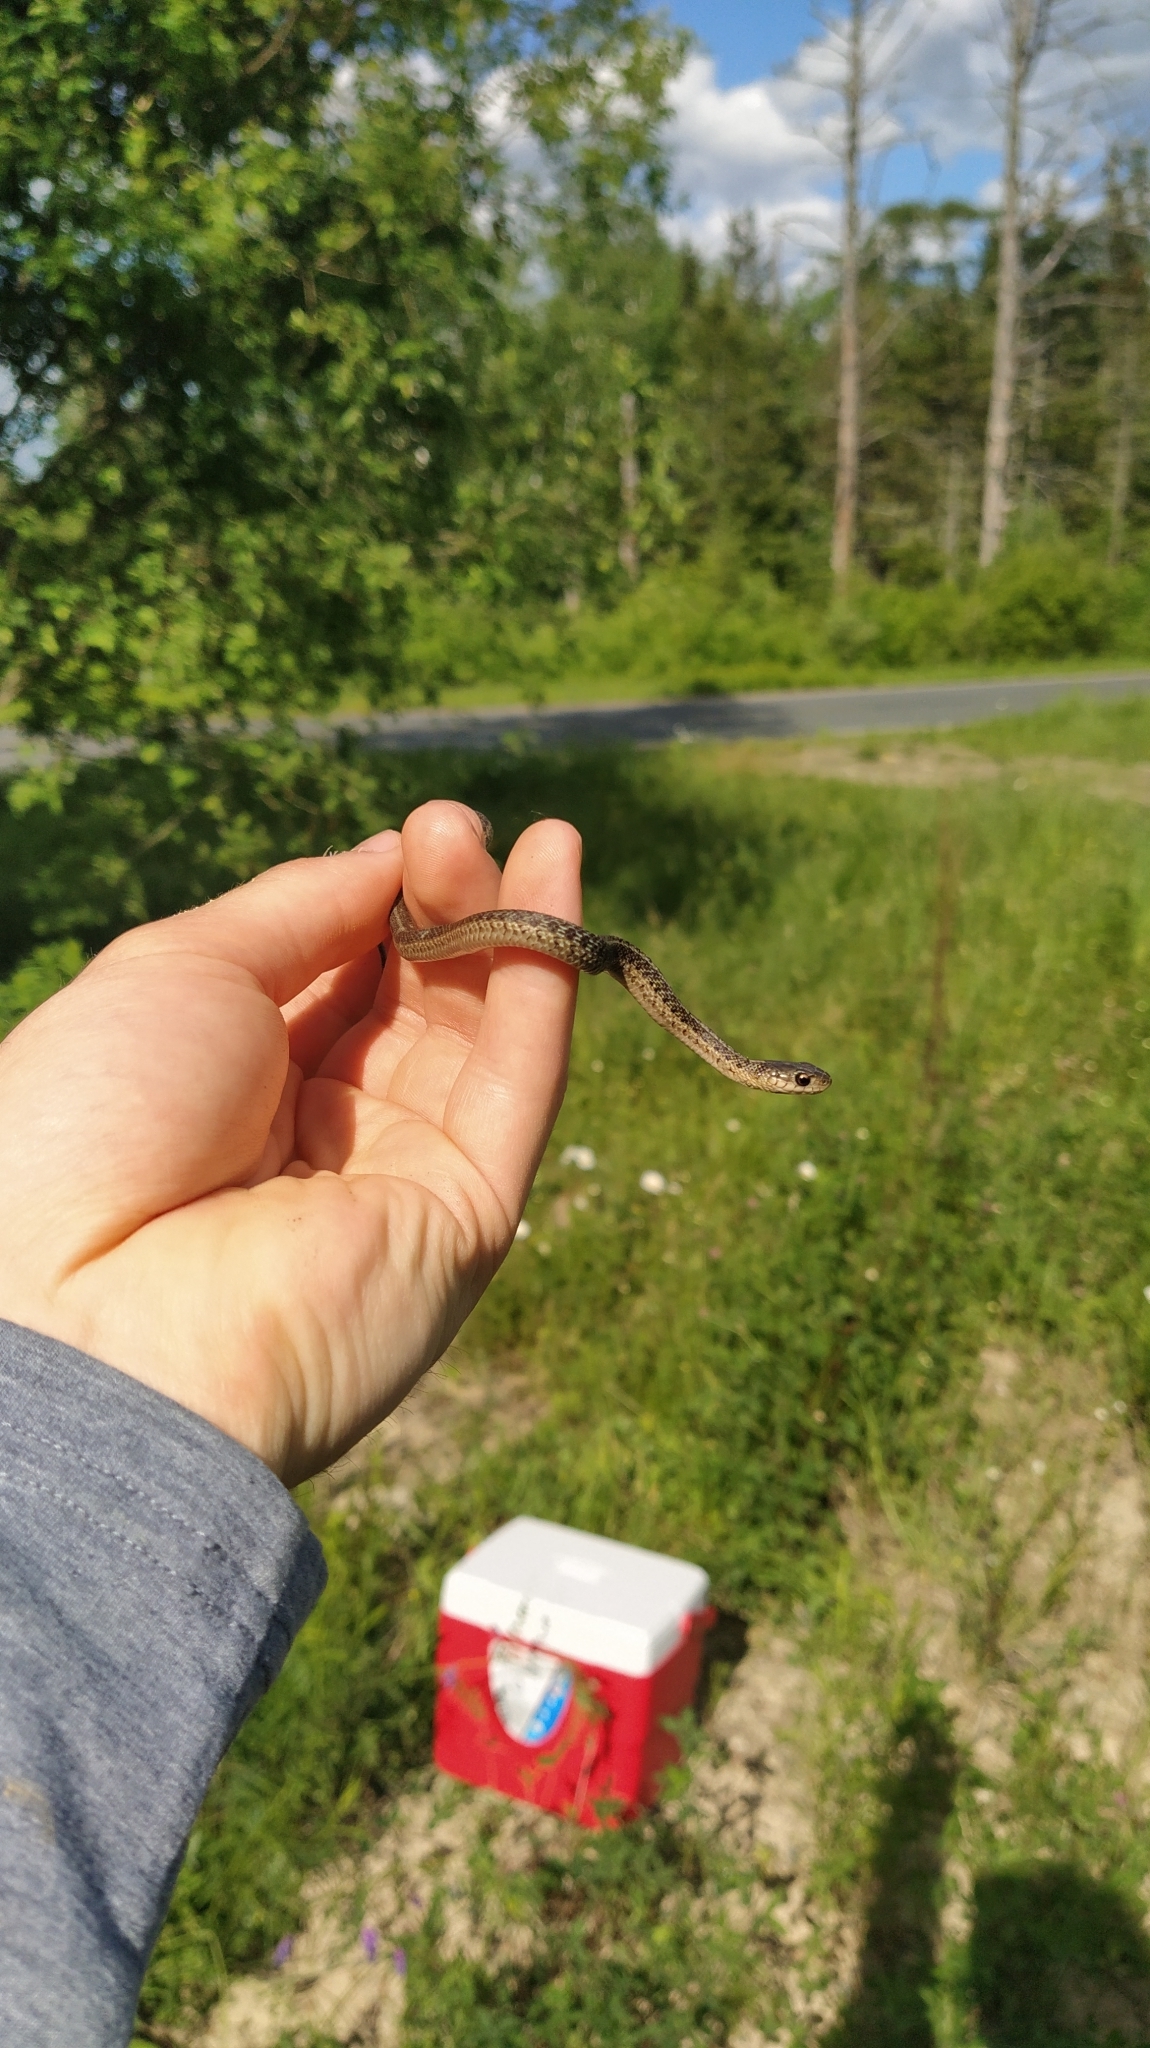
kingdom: Animalia
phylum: Chordata
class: Squamata
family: Colubridae
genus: Thamnophis
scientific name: Thamnophis sirtalis
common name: Common garter snake
